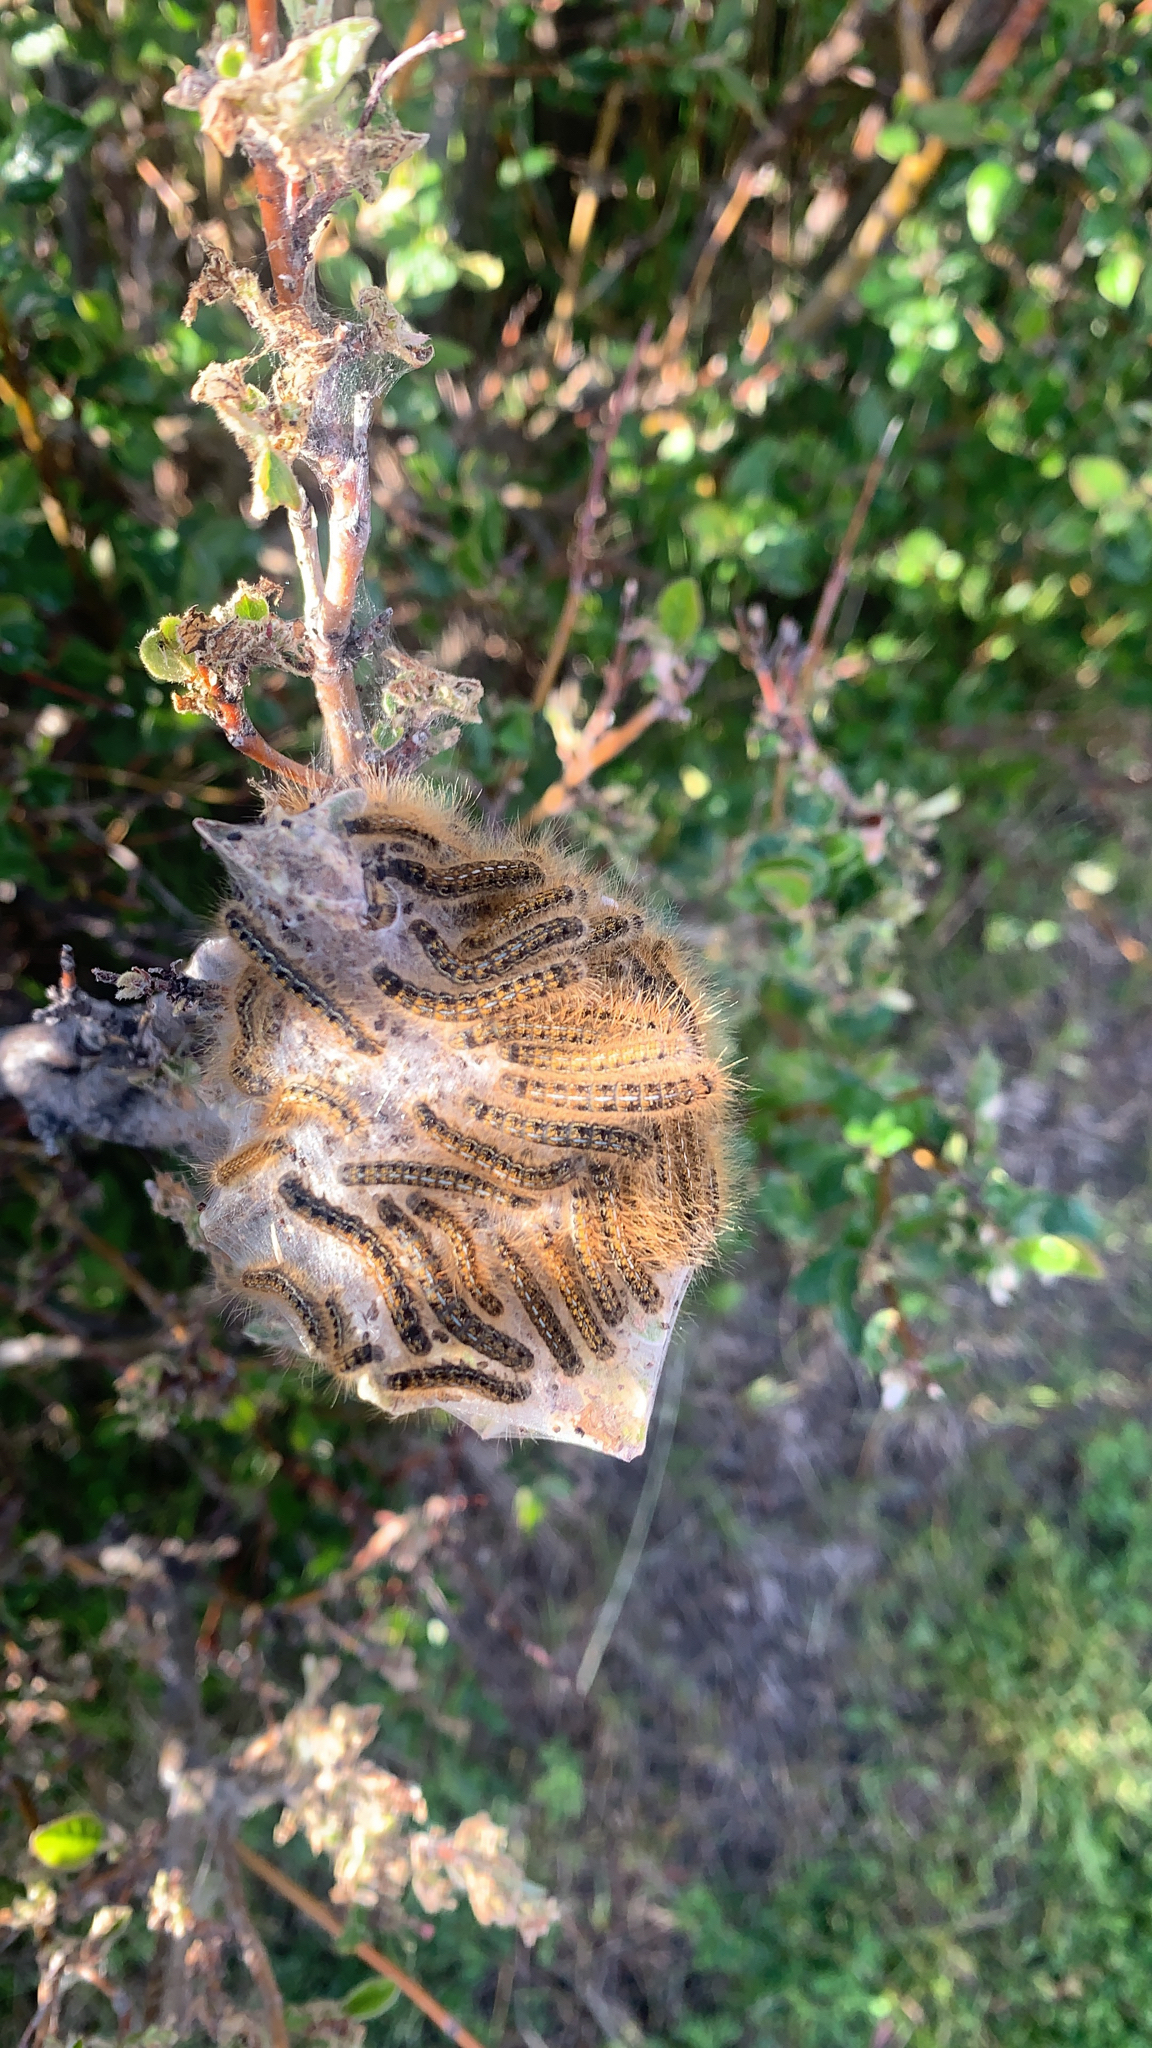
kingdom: Animalia
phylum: Arthropoda
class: Insecta
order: Lepidoptera
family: Lasiocampidae
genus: Malacosoma
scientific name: Malacosoma californica
